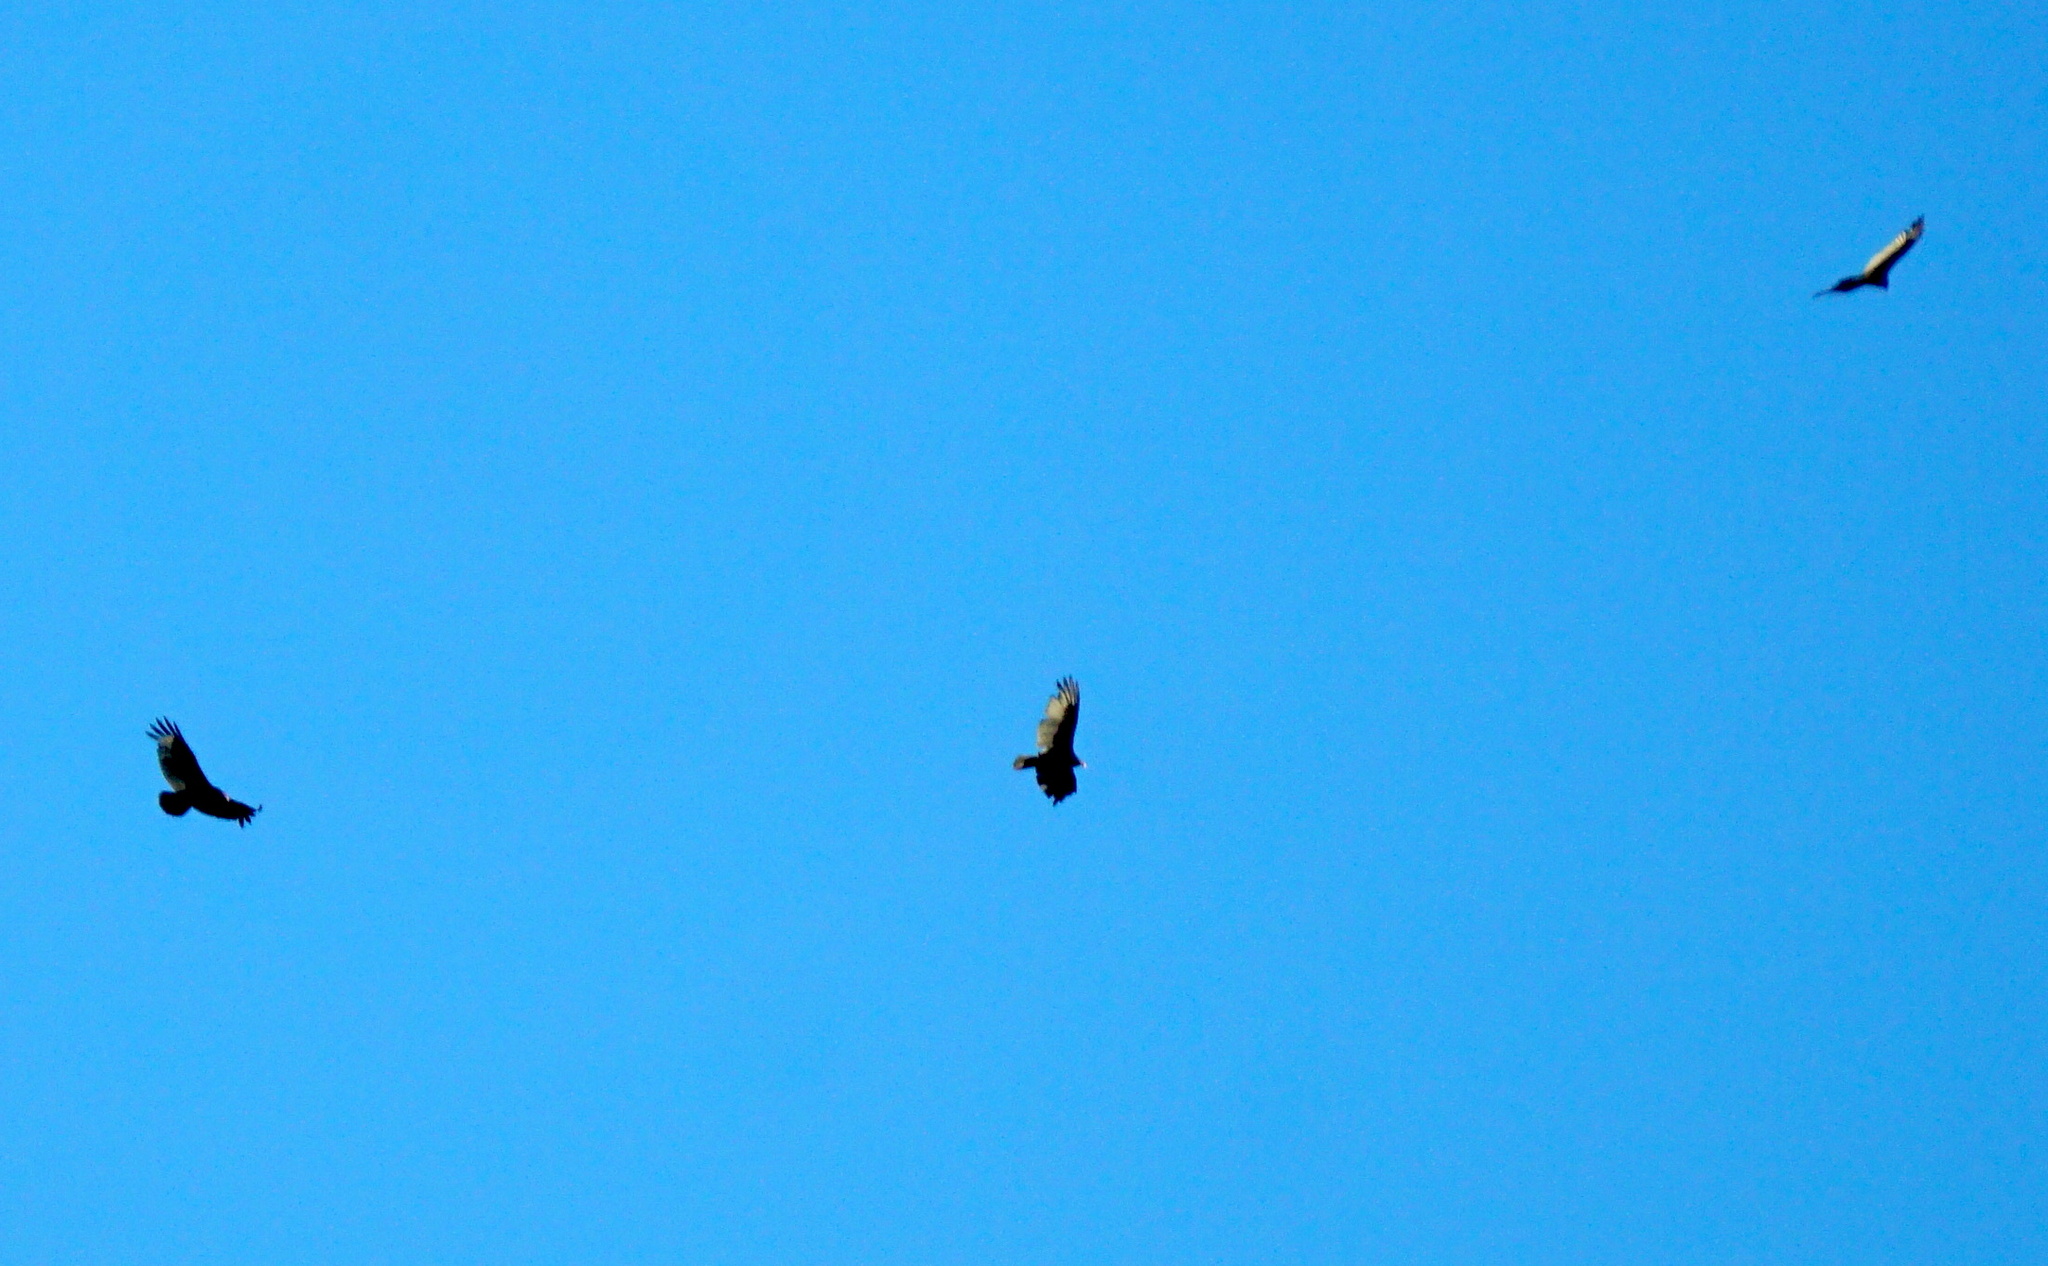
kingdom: Animalia
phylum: Chordata
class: Aves
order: Accipitriformes
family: Cathartidae
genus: Cathartes
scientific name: Cathartes aura
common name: Turkey vulture
